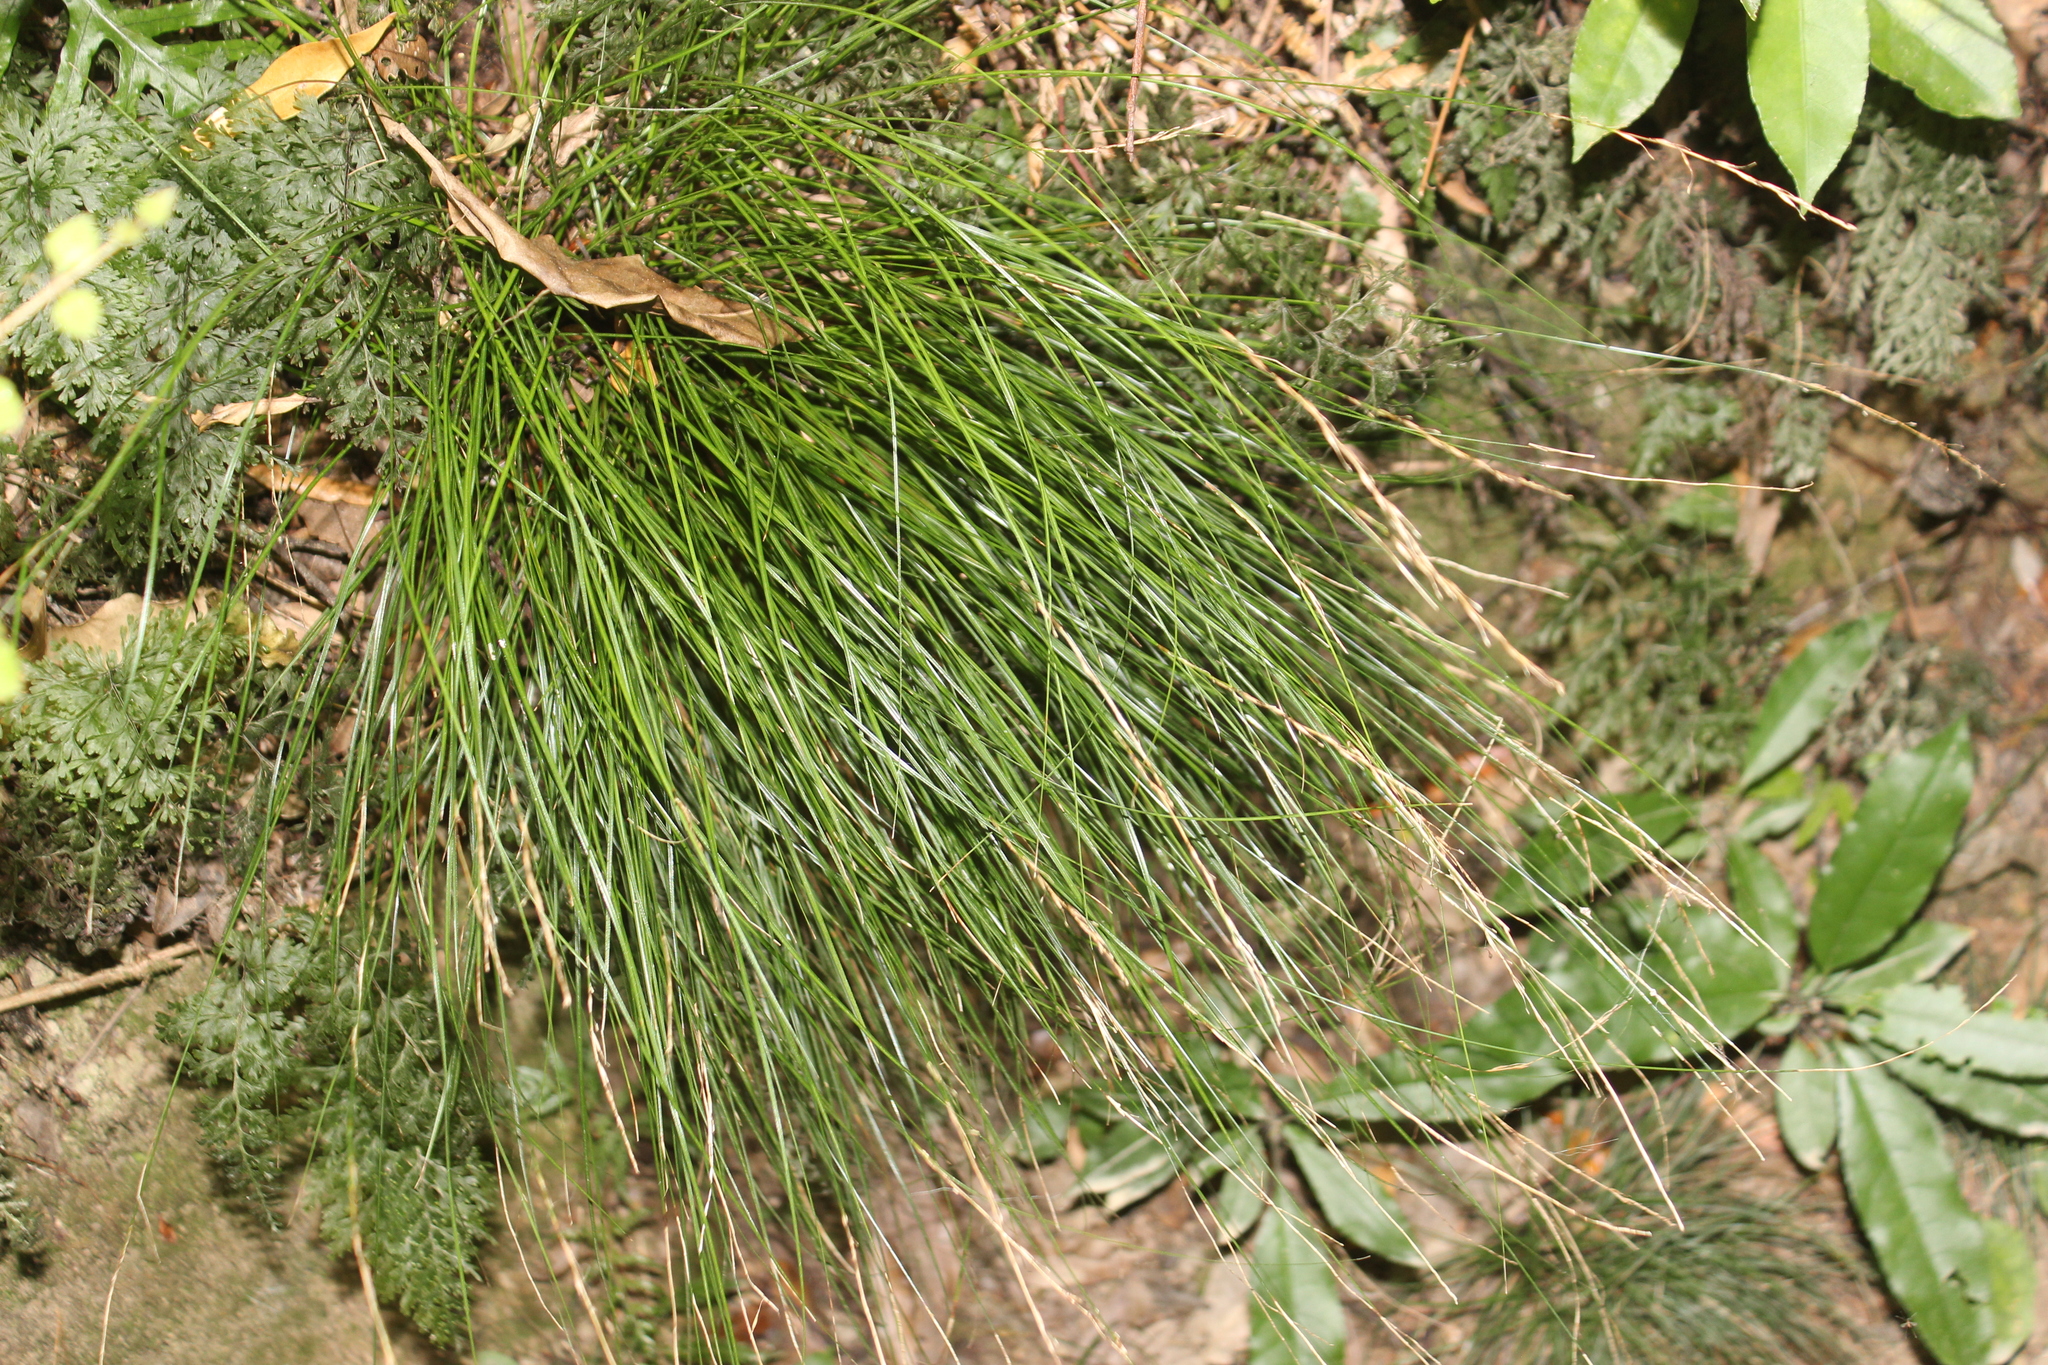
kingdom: Plantae
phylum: Tracheophyta
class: Liliopsida
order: Poales
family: Cyperaceae
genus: Carex
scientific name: Carex banksiana
